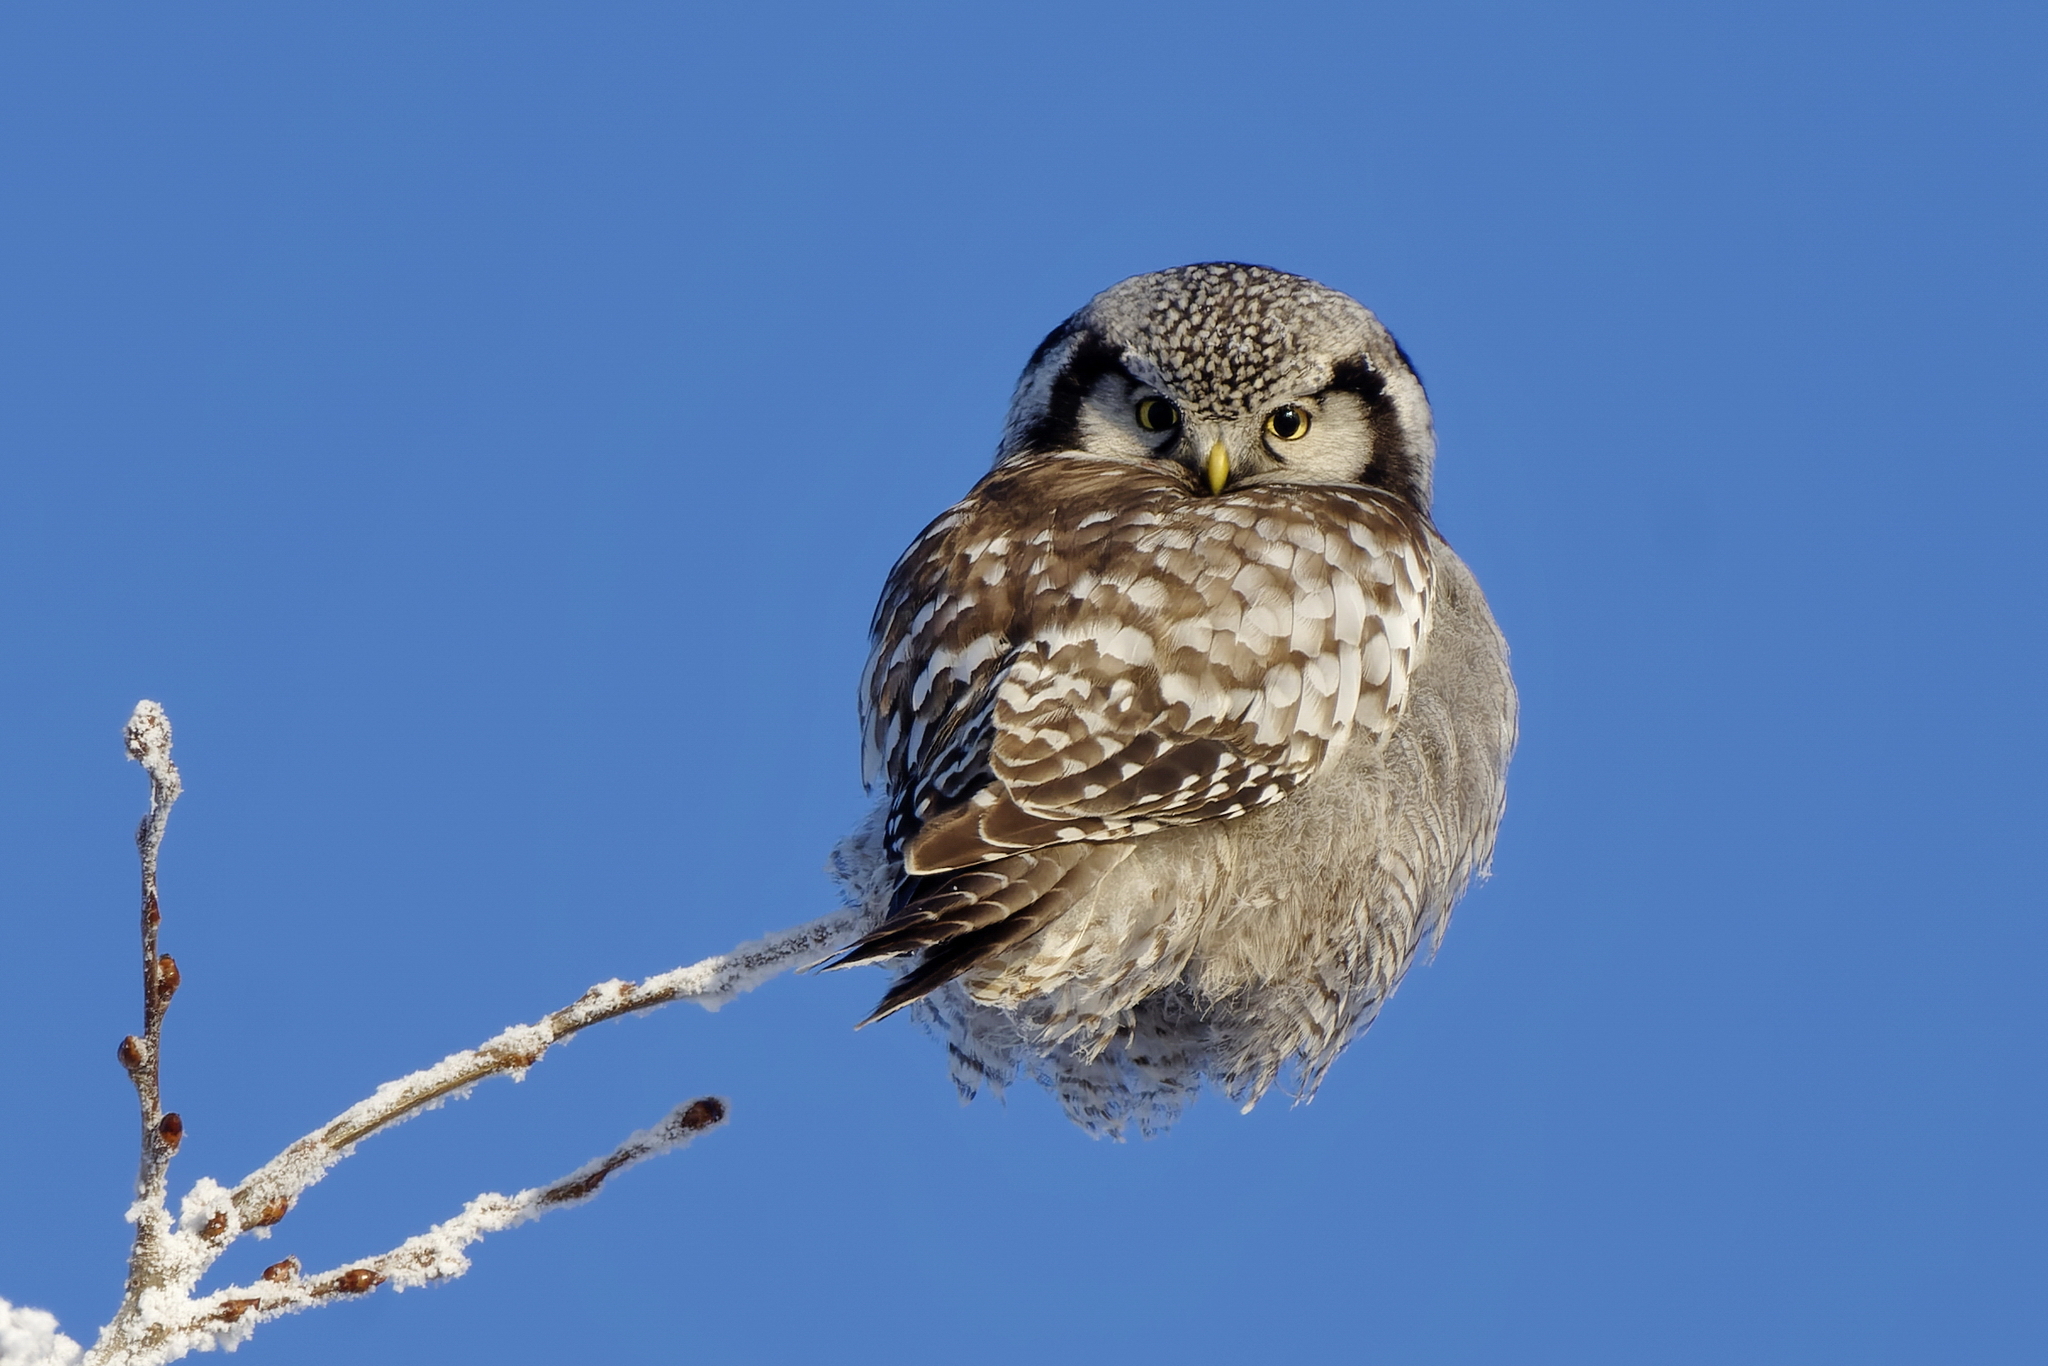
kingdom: Animalia
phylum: Chordata
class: Aves
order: Strigiformes
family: Strigidae
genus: Surnia
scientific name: Surnia ulula
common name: Northern hawk-owl
